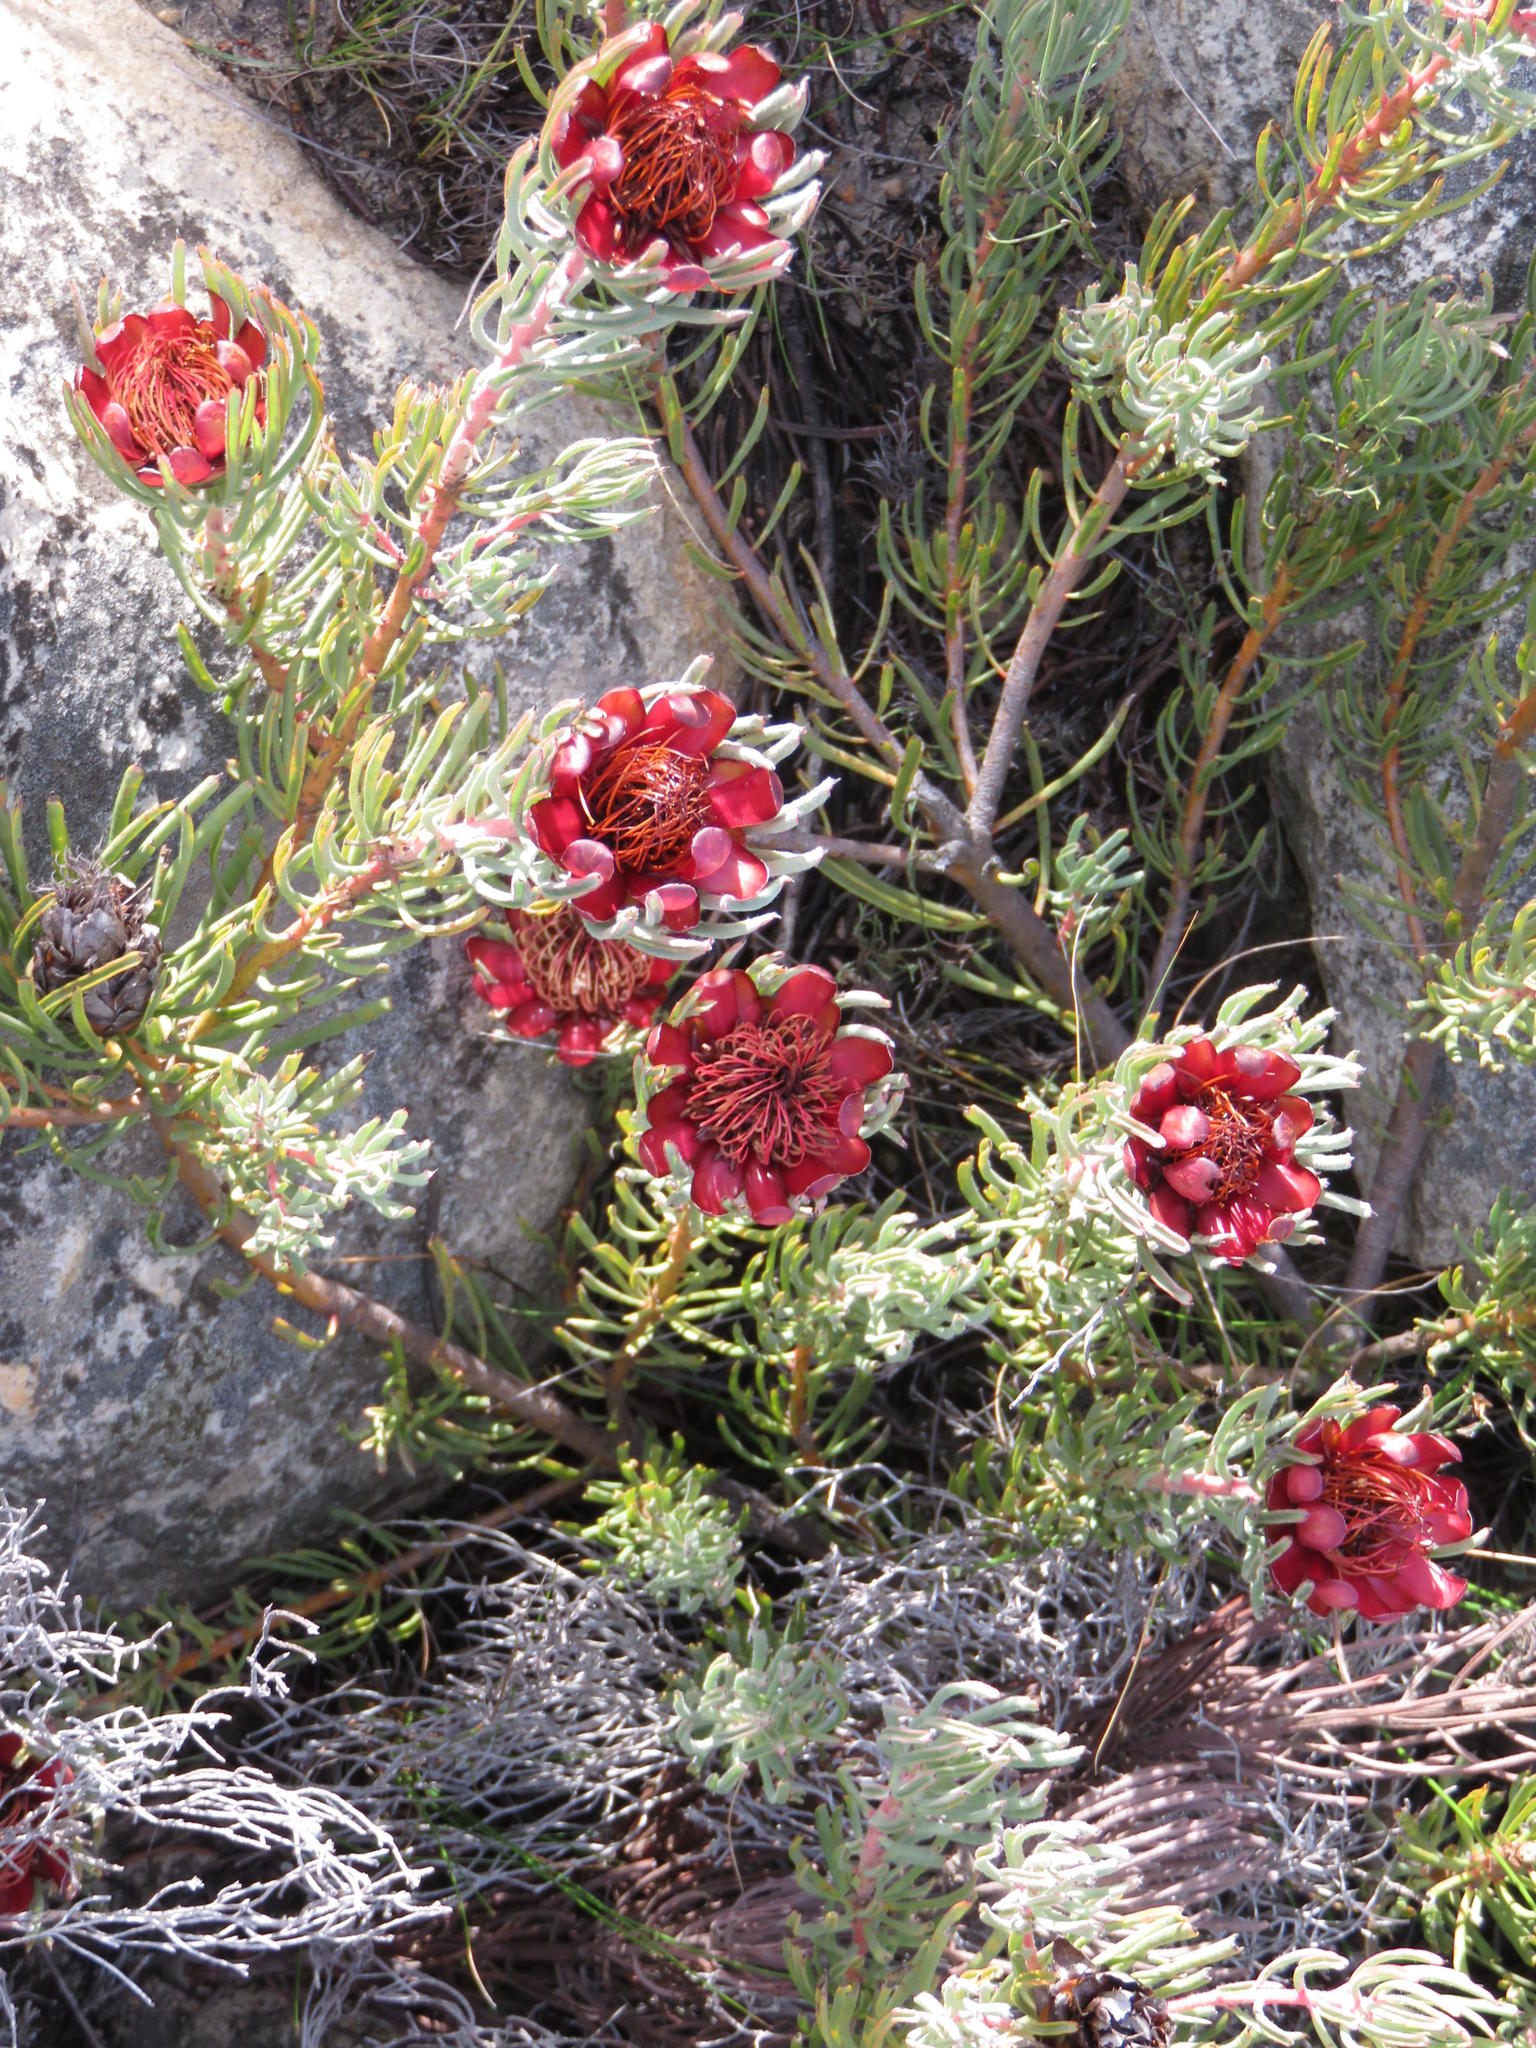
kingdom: Plantae
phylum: Tracheophyta
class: Magnoliopsida
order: Proteales
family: Proteaceae
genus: Protea
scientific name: Protea canaliculata
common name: Groove-leaf sugarbush
